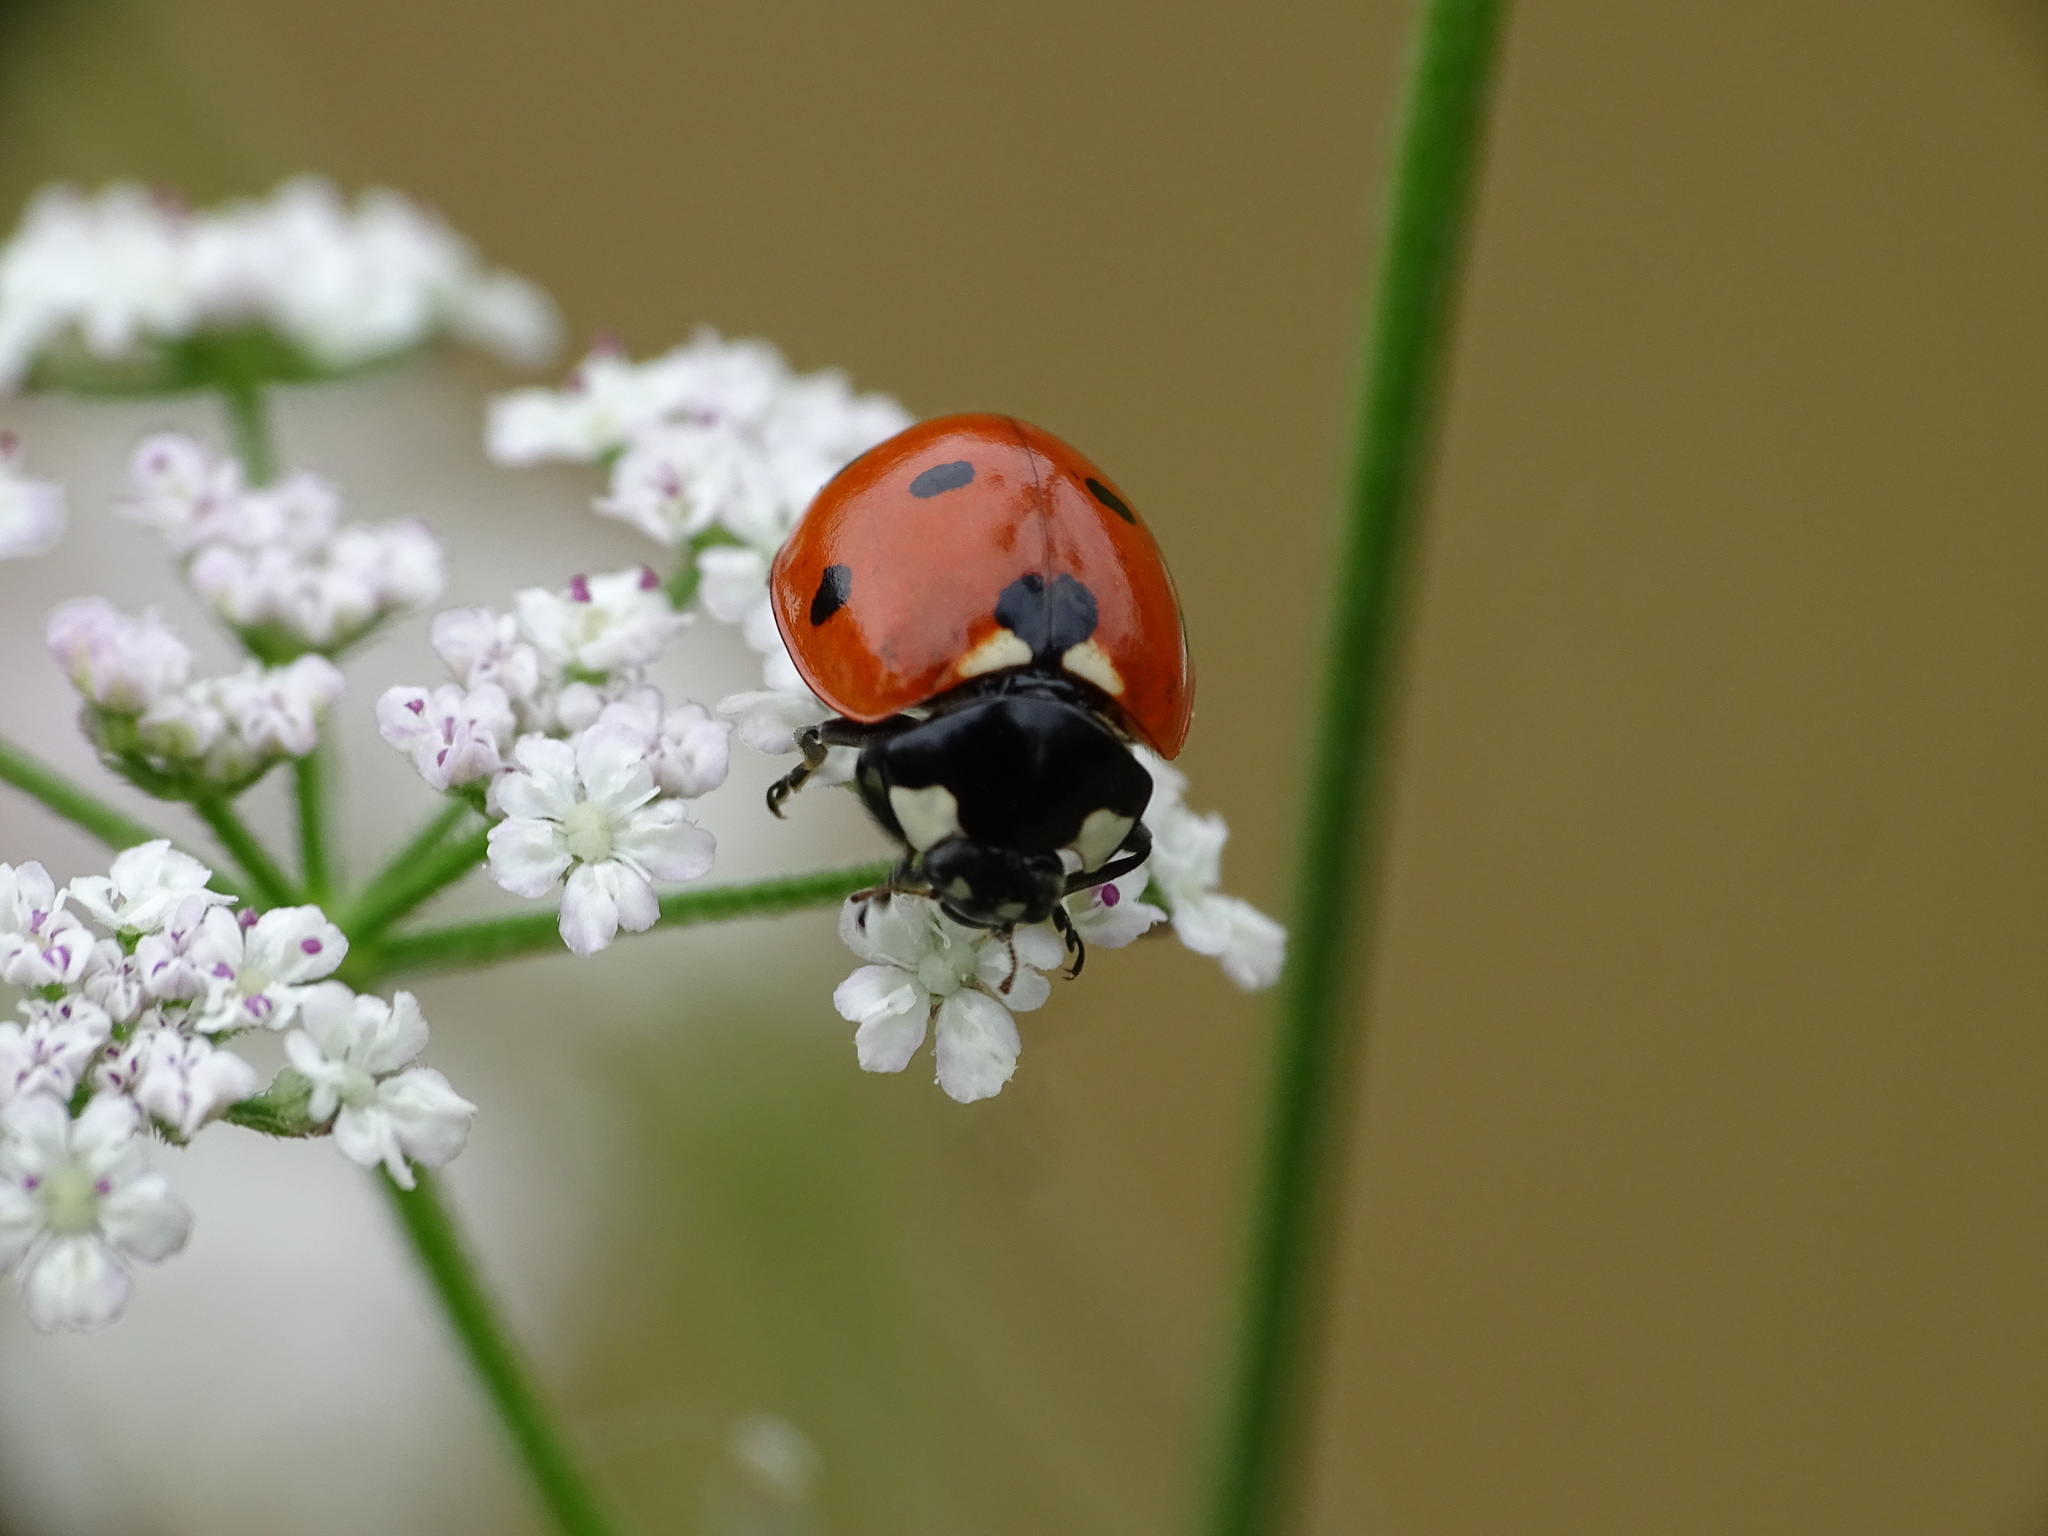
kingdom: Animalia
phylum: Arthropoda
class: Insecta
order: Coleoptera
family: Coccinellidae
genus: Coccinella
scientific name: Coccinella septempunctata
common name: Sevenspotted lady beetle
